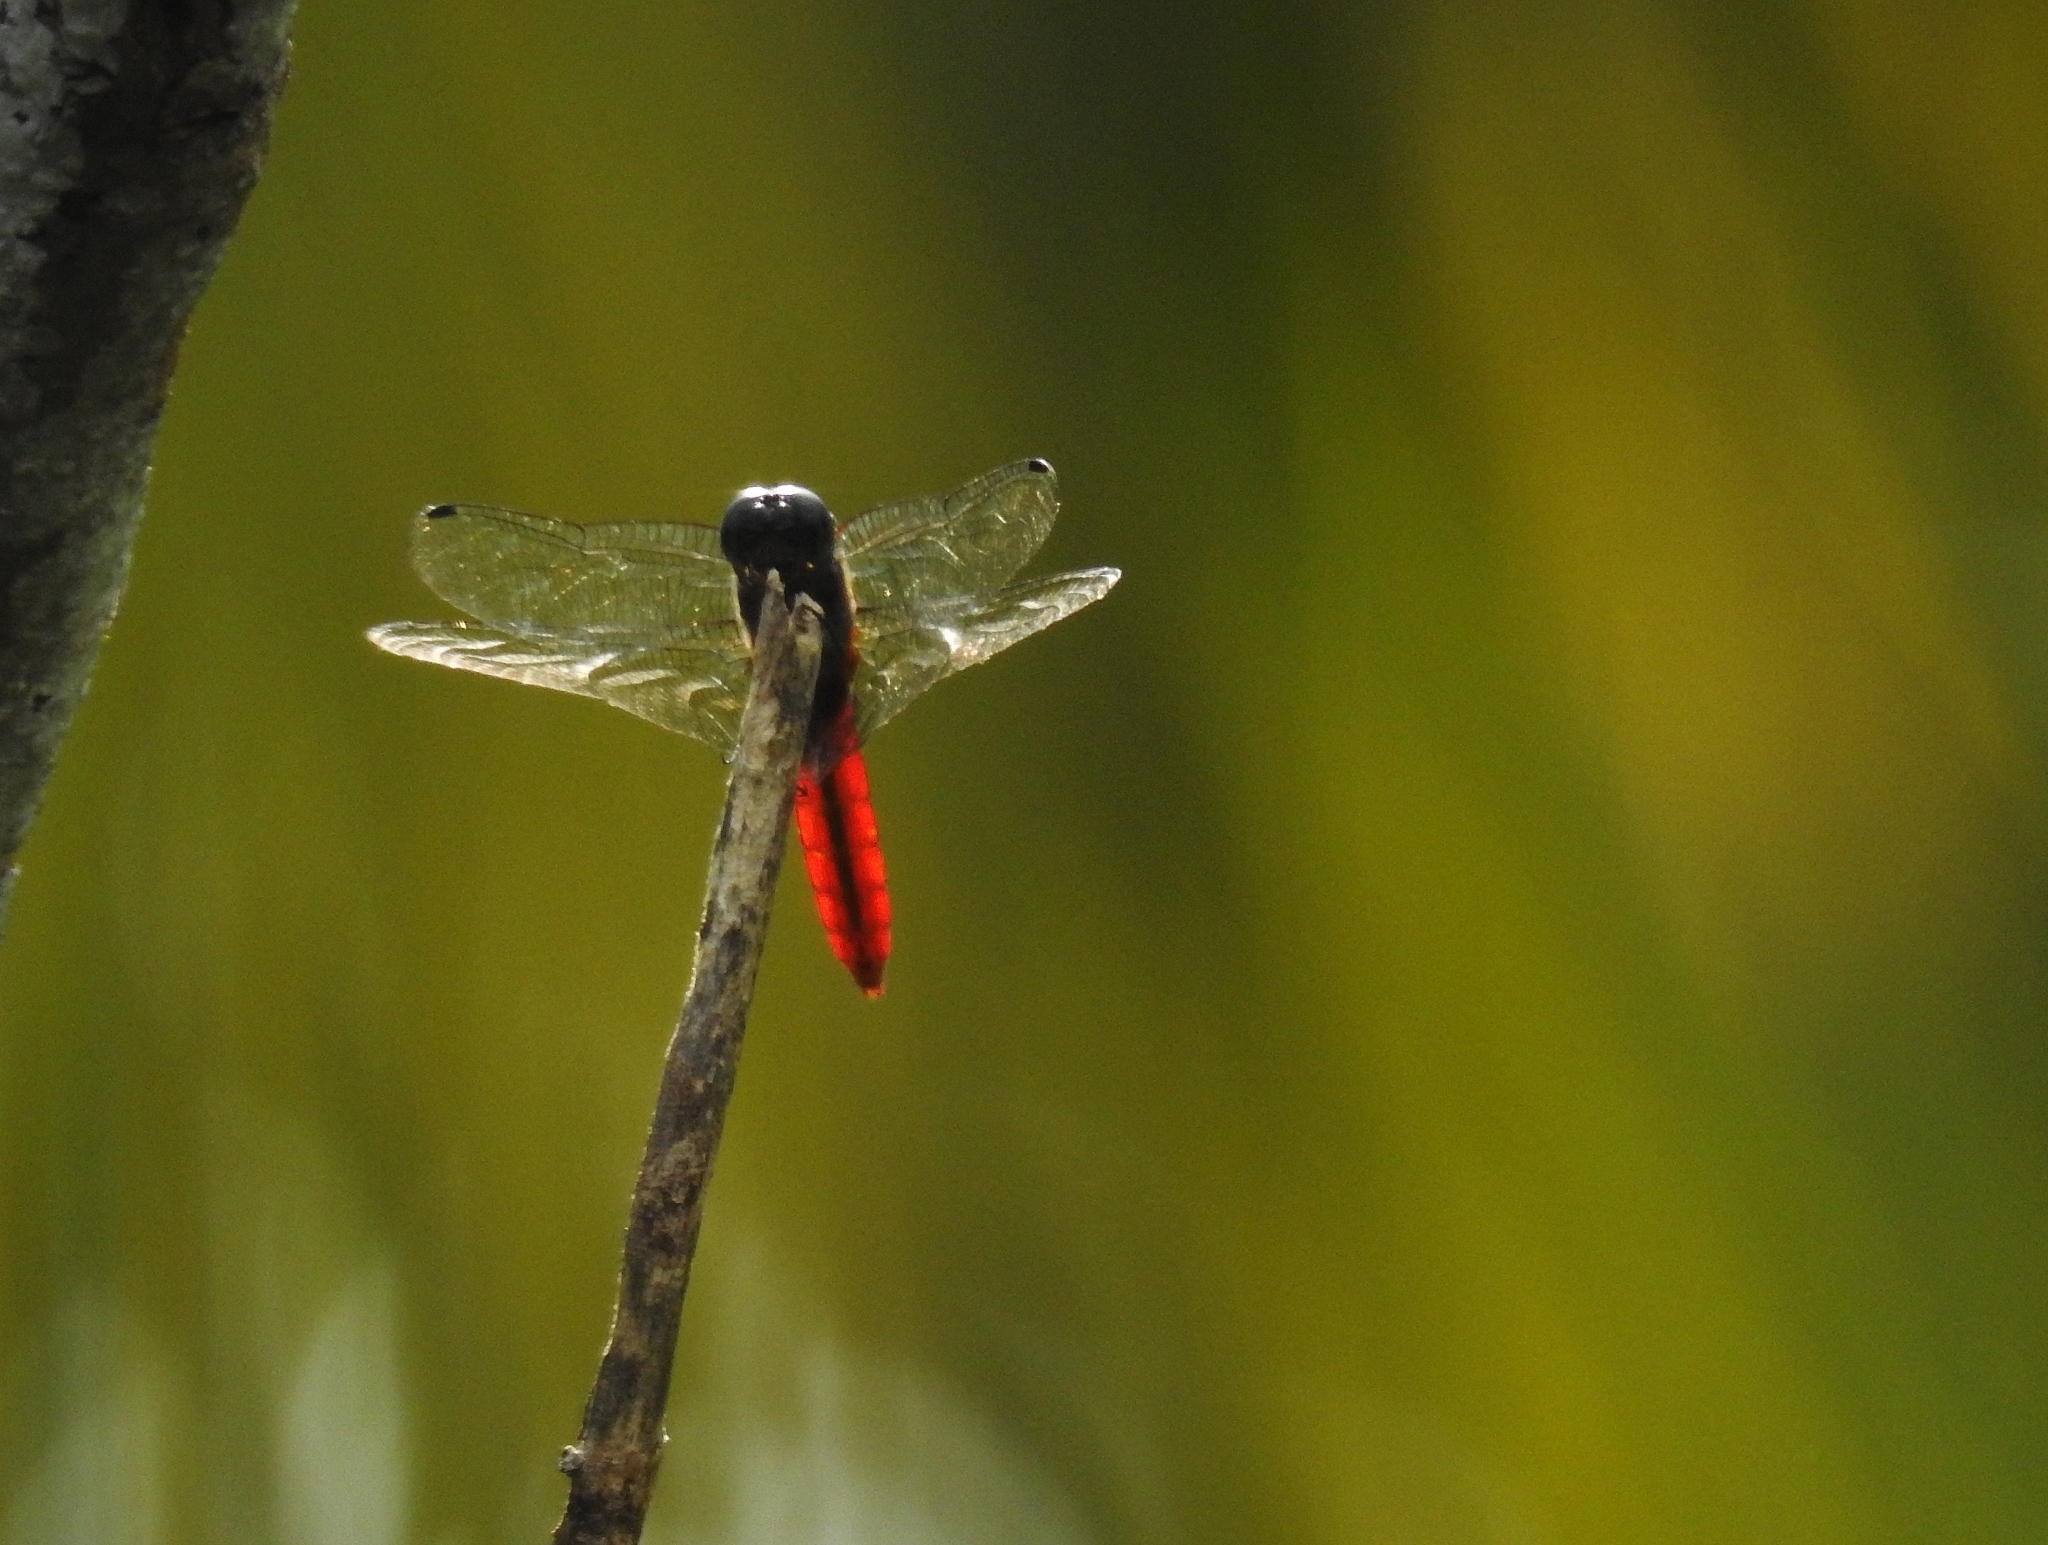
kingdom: Animalia
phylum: Arthropoda
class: Insecta
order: Odonata
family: Libellulidae
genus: Aethriamanta
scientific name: Aethriamanta brevipennis
